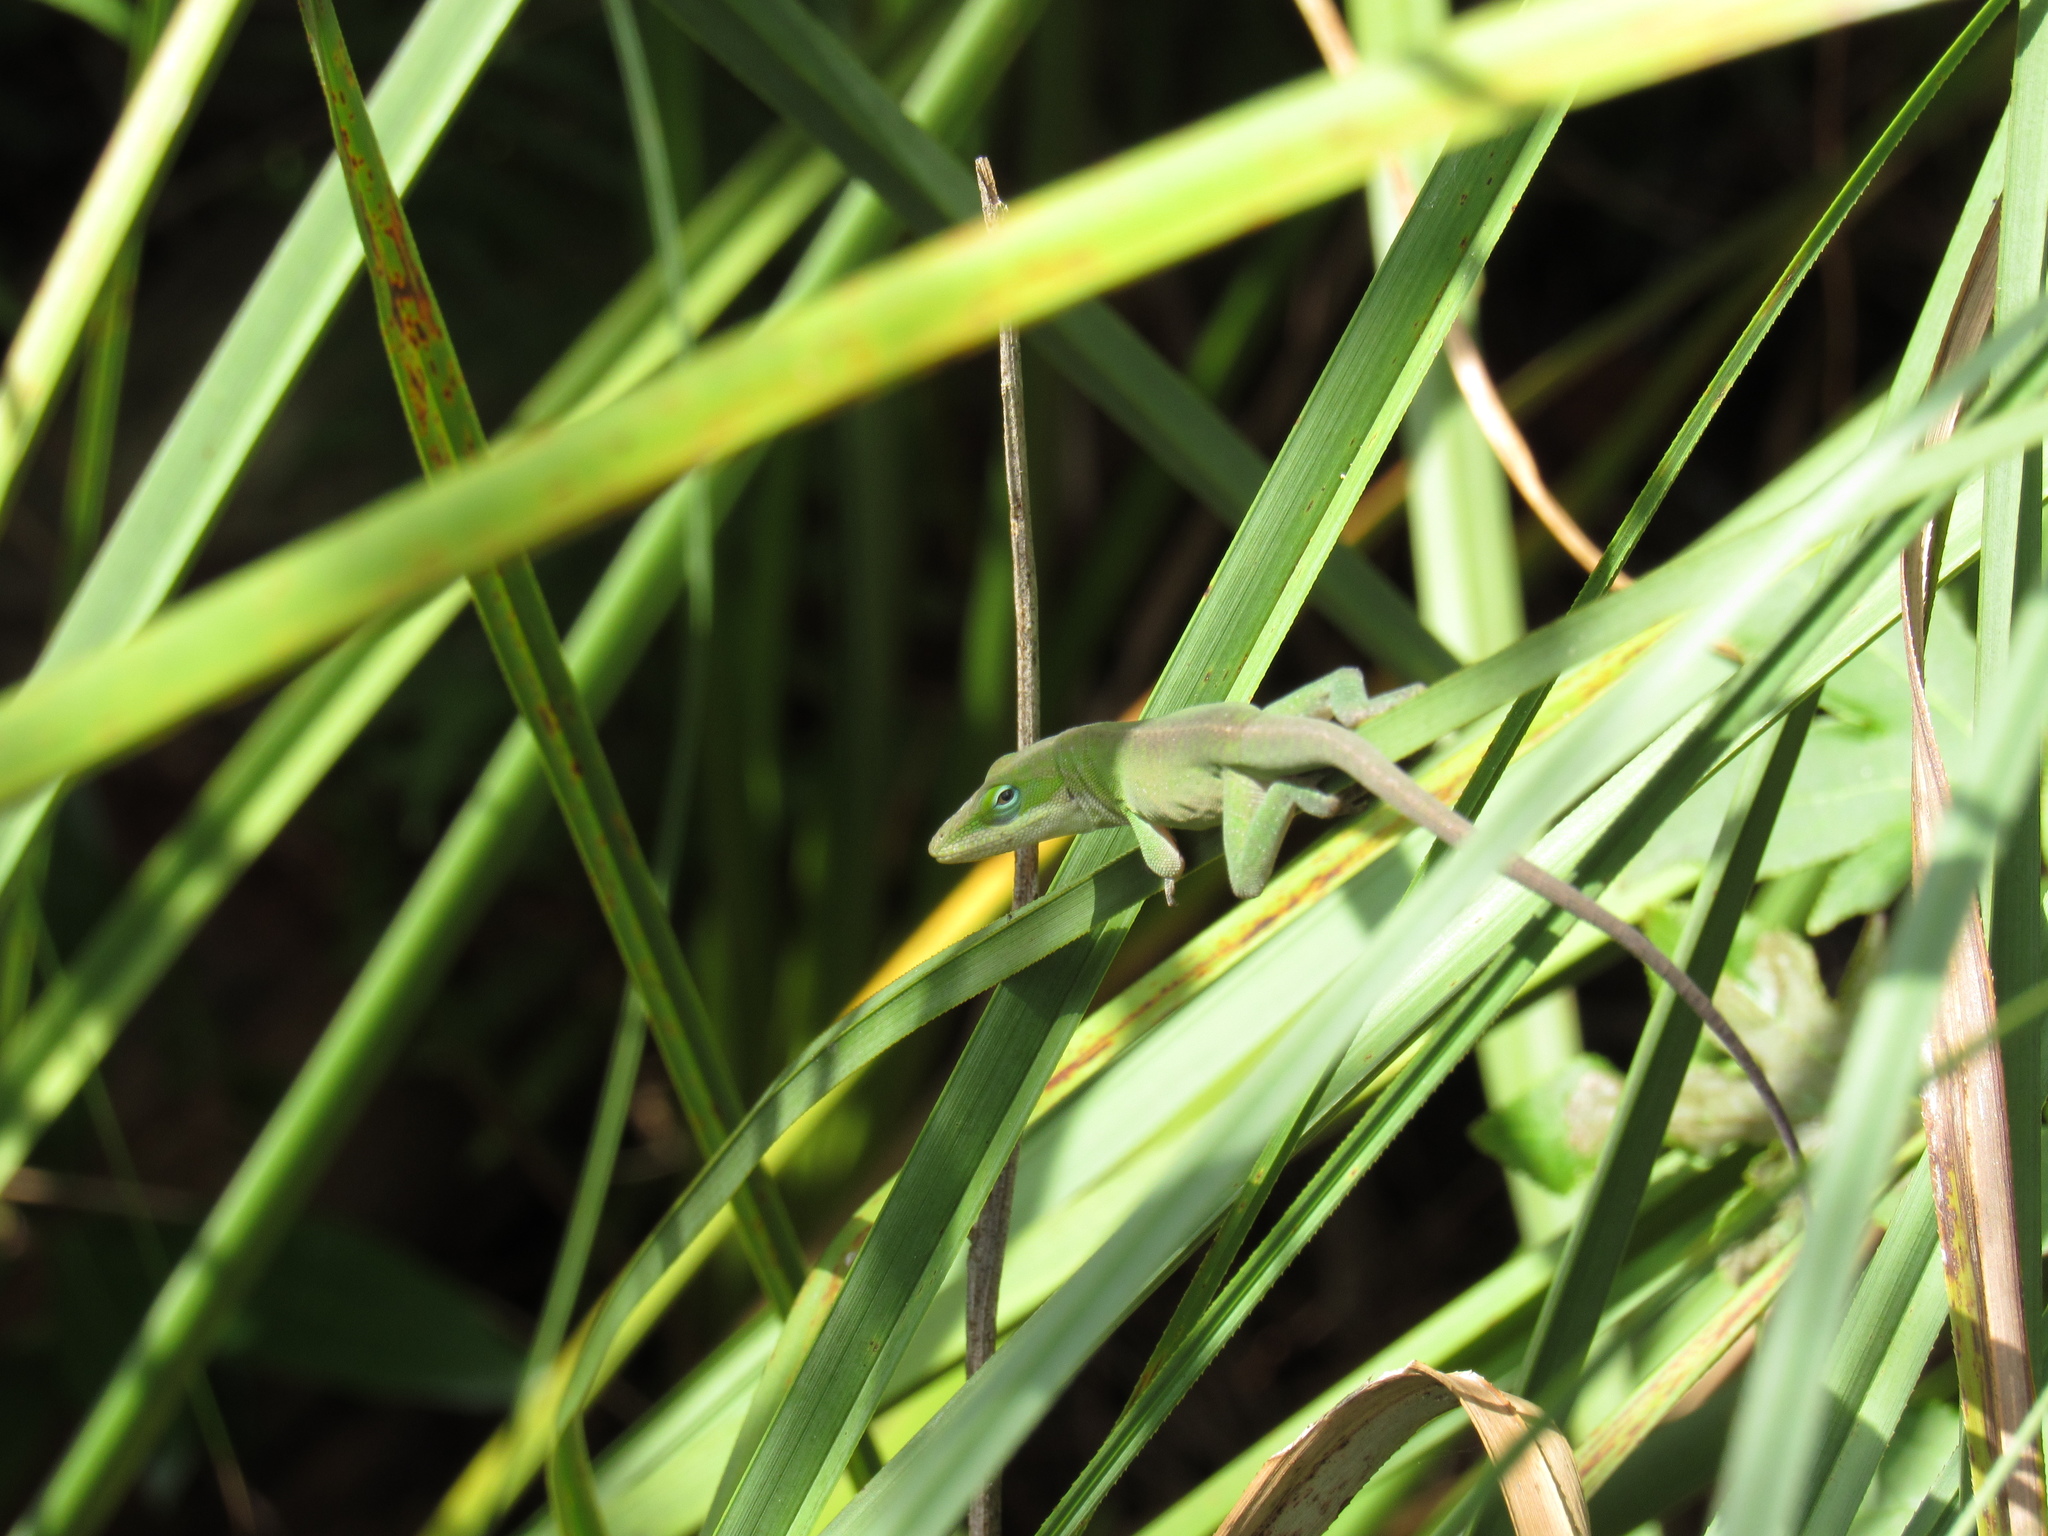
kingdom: Animalia
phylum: Chordata
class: Squamata
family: Dactyloidae
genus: Anolis
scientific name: Anolis carolinensis
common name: Green anole
